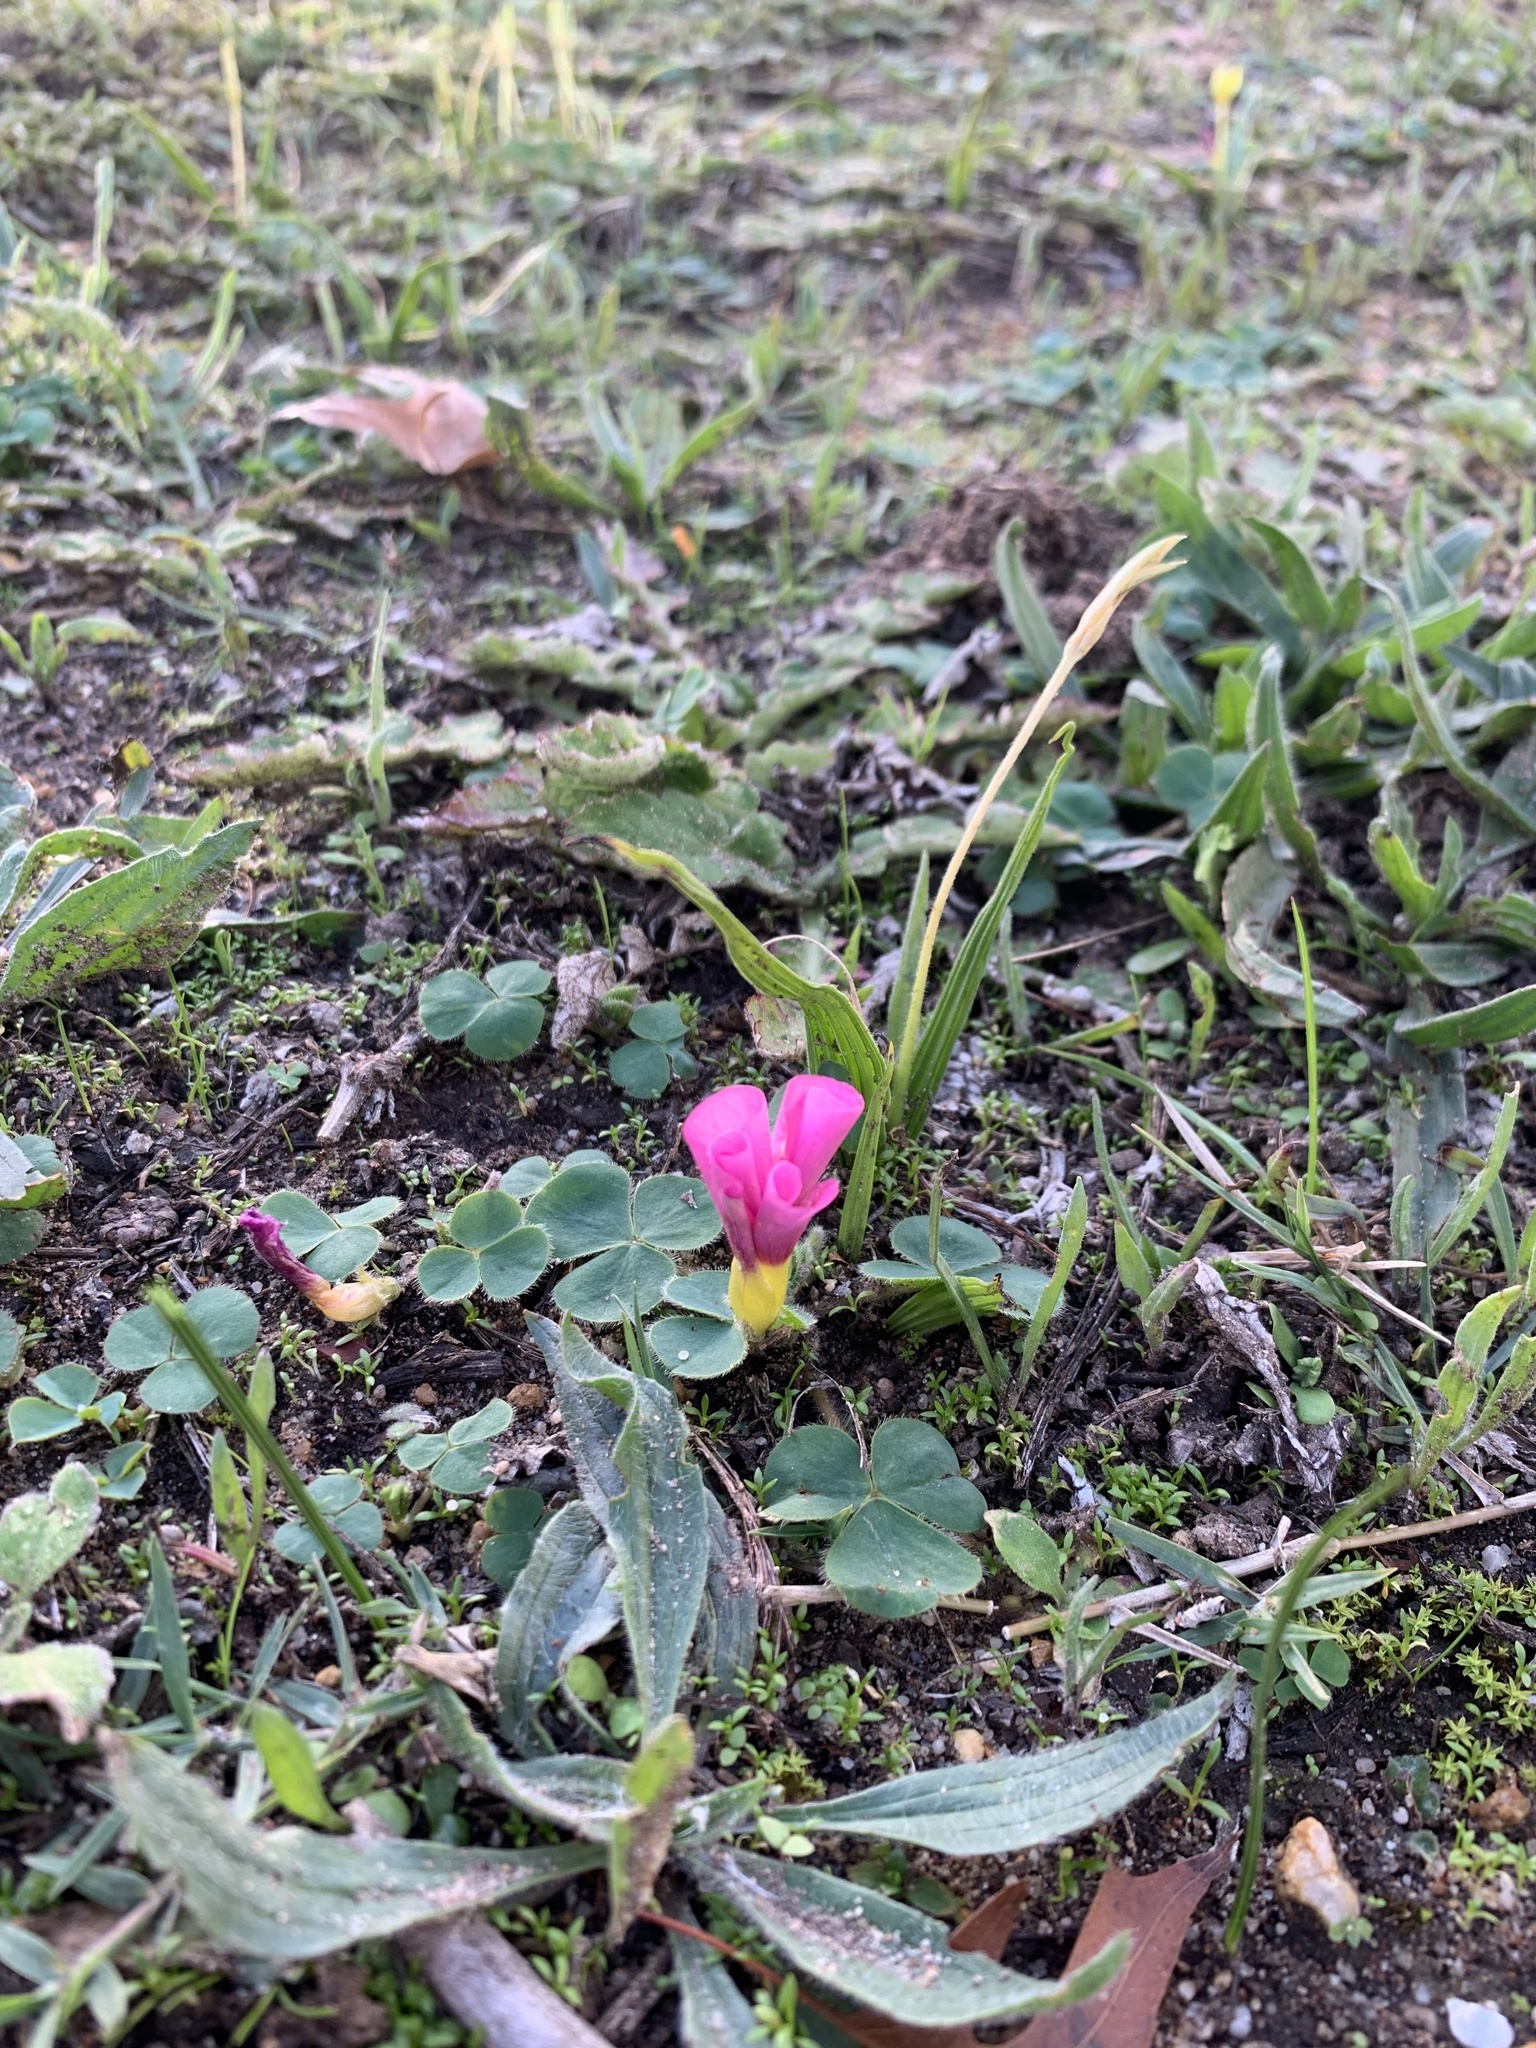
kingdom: Plantae
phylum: Tracheophyta
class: Magnoliopsida
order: Oxalidales
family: Oxalidaceae
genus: Oxalis
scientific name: Oxalis purpurea
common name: Purple woodsorrel
